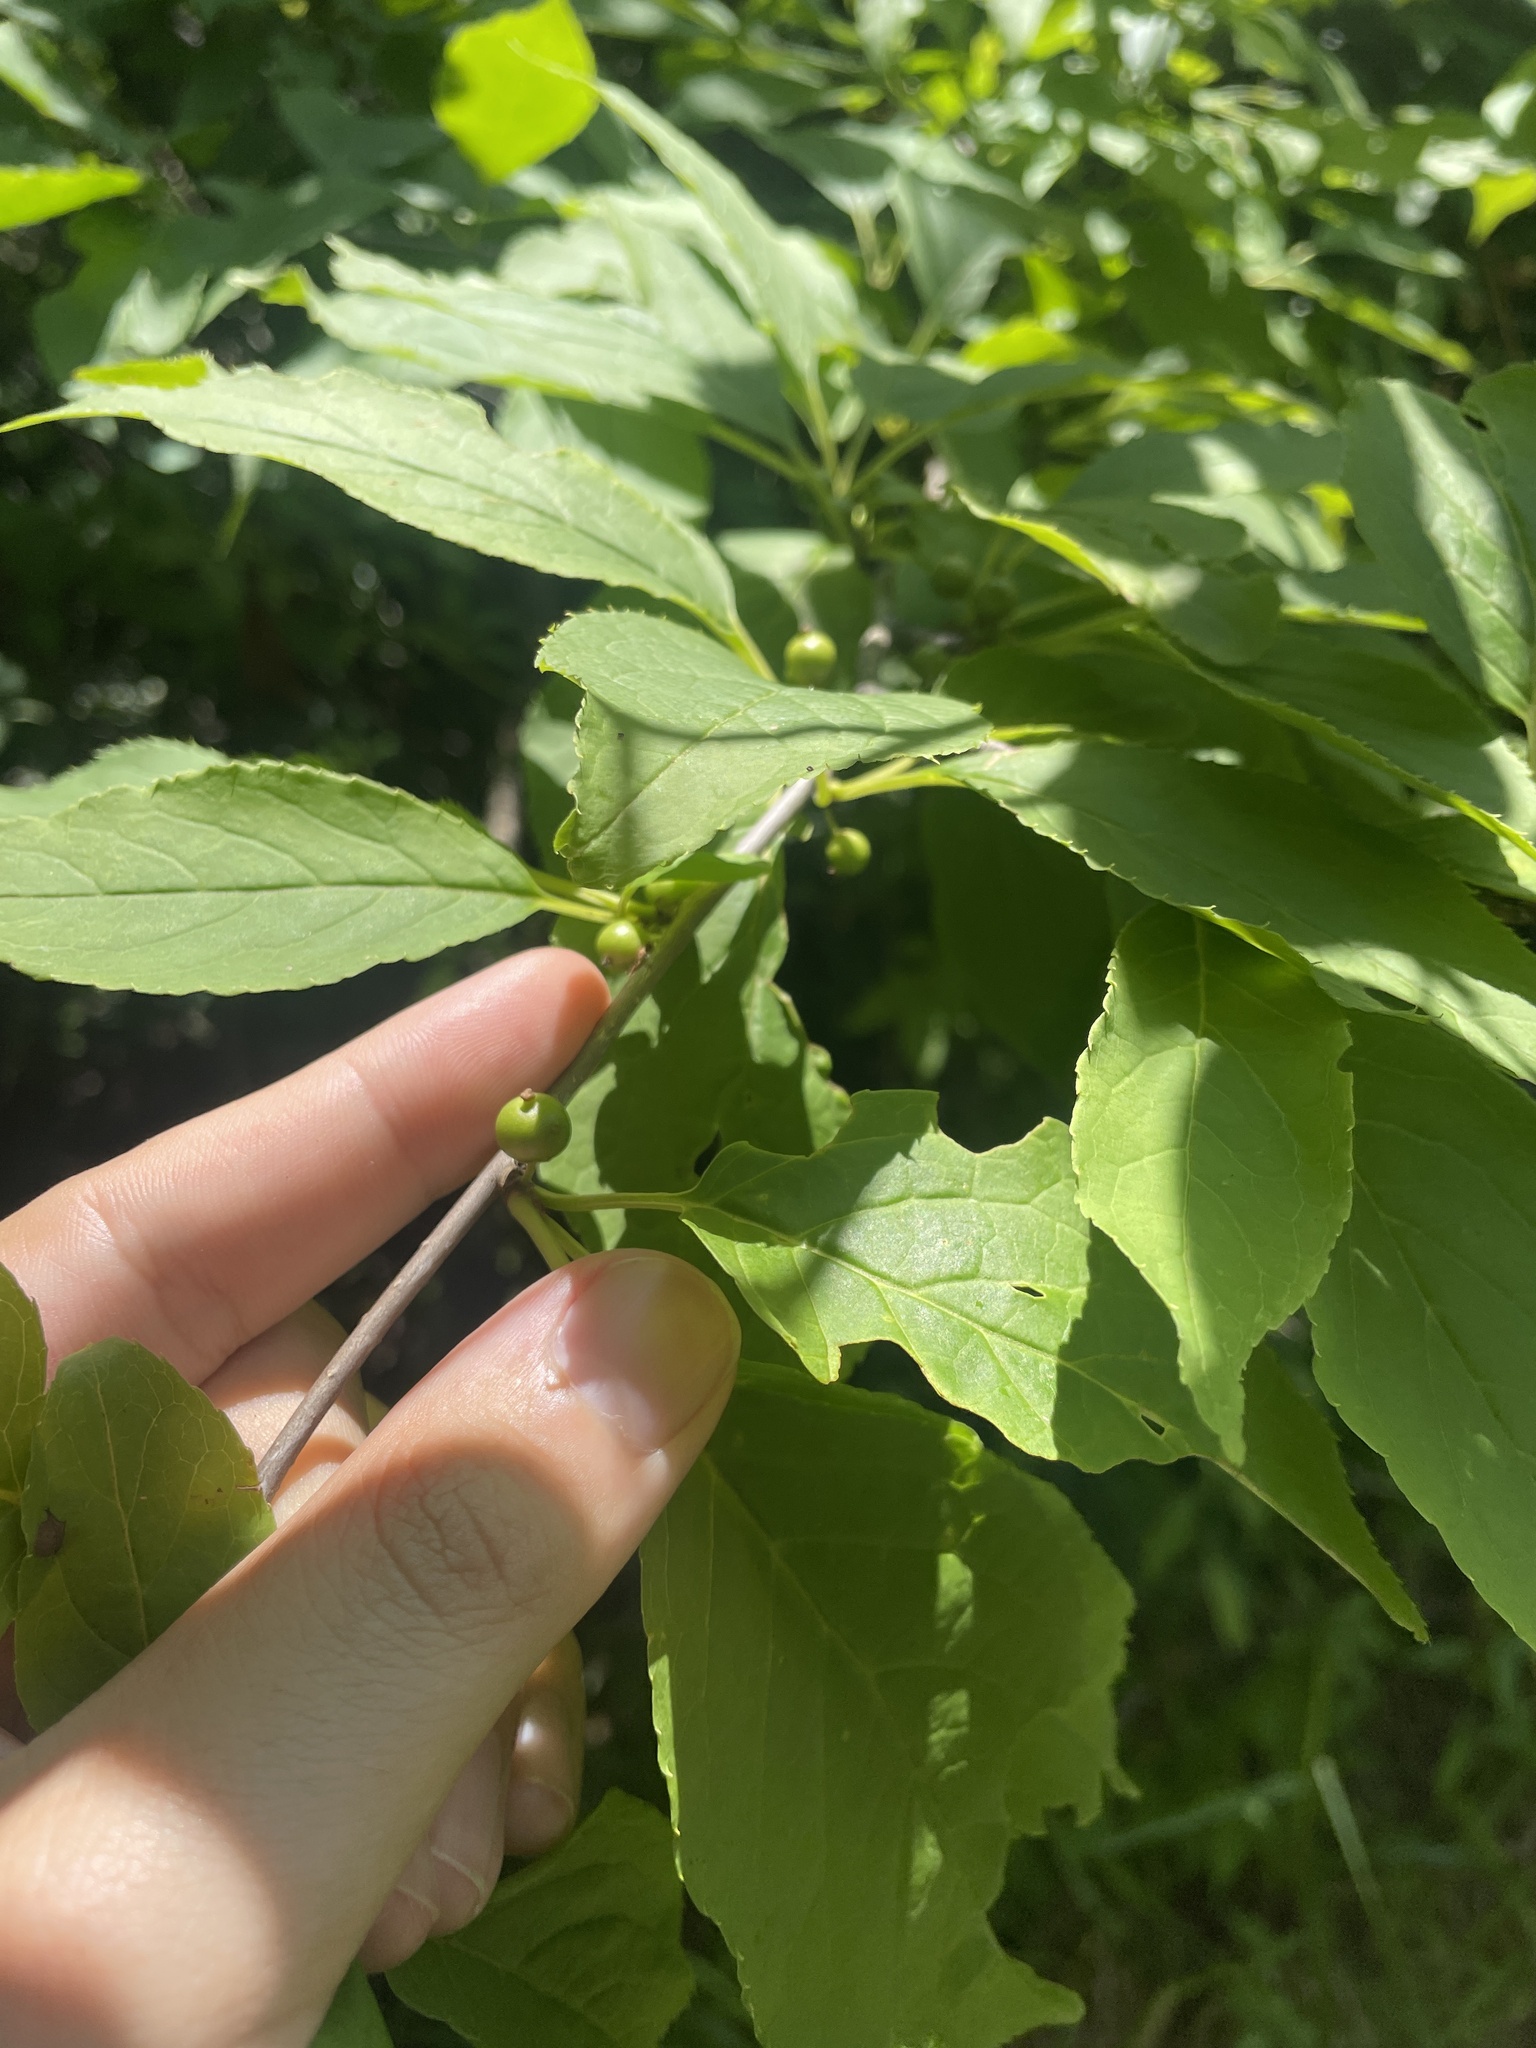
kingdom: Plantae
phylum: Tracheophyta
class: Magnoliopsida
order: Aquifoliales
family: Aquifoliaceae
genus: Ilex
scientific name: Ilex montana
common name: Mountain winterberry
